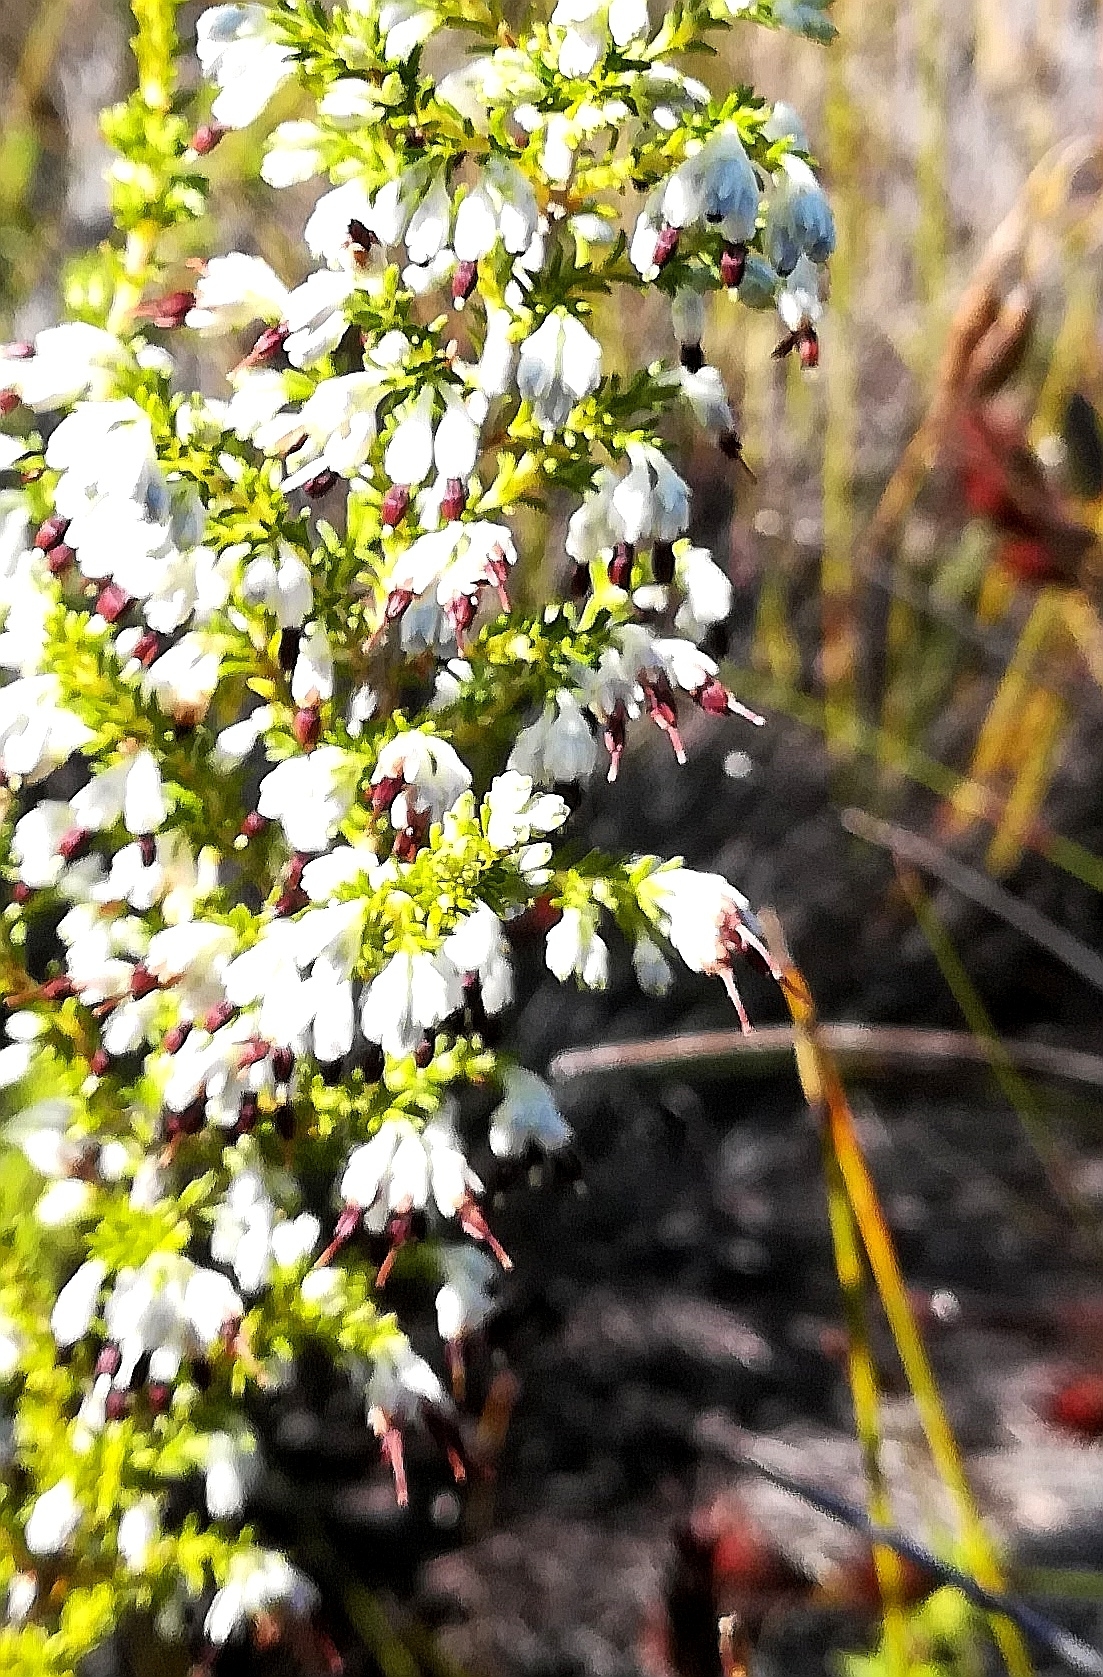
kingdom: Plantae
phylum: Tracheophyta
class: Magnoliopsida
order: Ericales
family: Ericaceae
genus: Erica
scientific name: Erica imbricata
